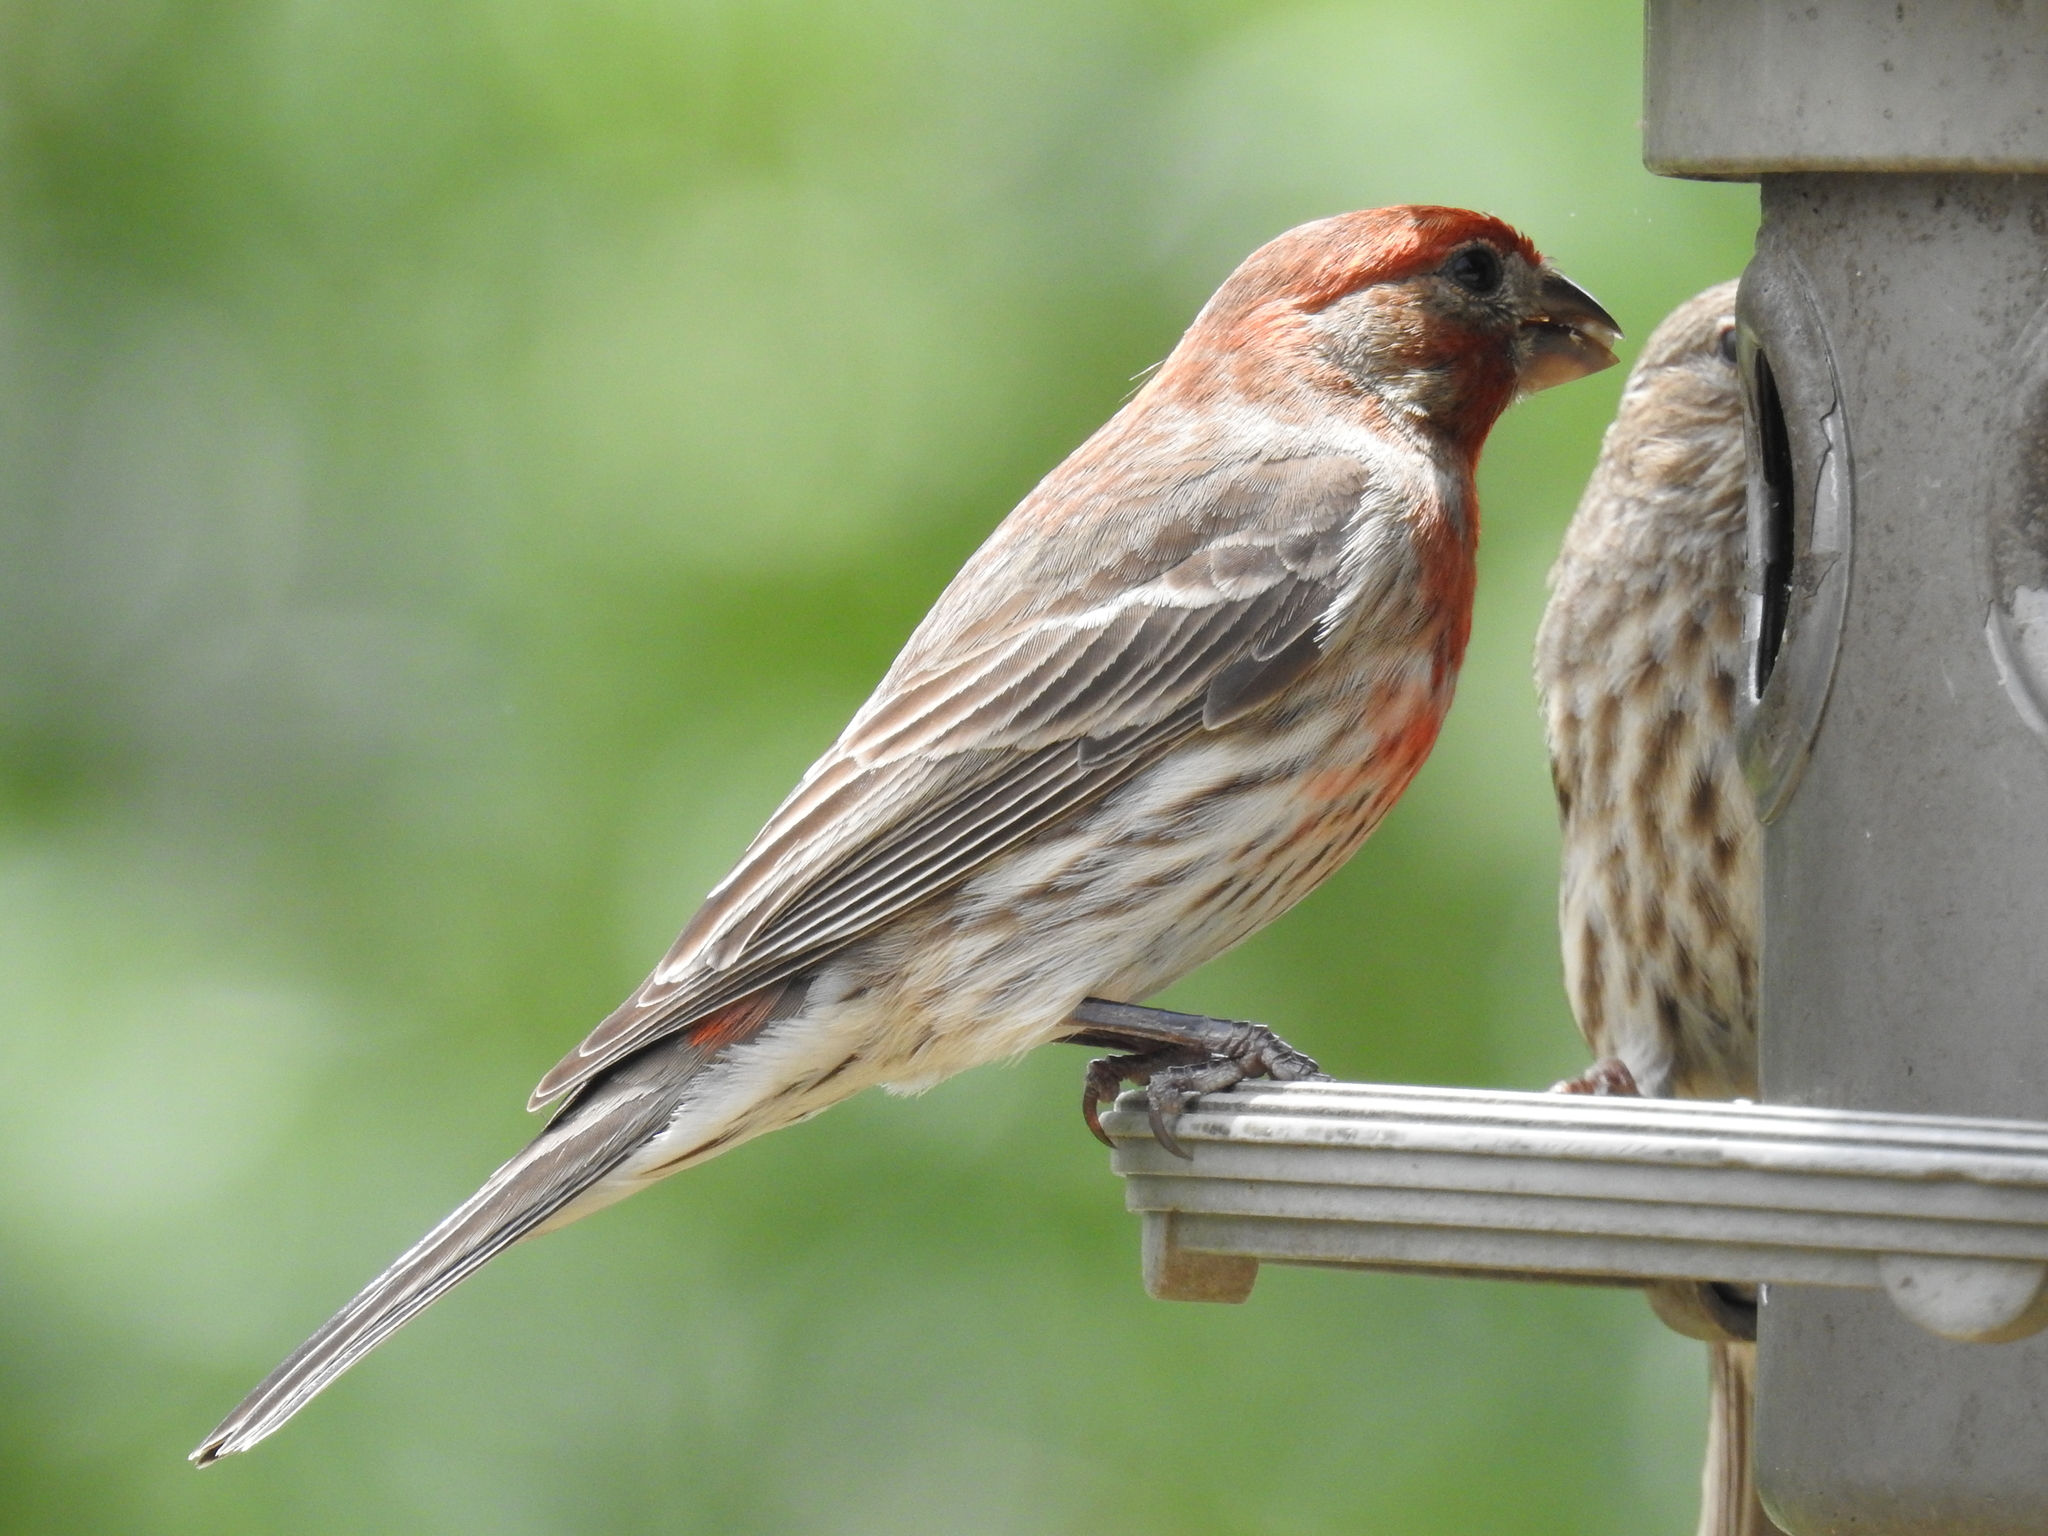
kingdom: Animalia
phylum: Chordata
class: Aves
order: Passeriformes
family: Fringillidae
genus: Haemorhous
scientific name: Haemorhous mexicanus
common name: House finch
